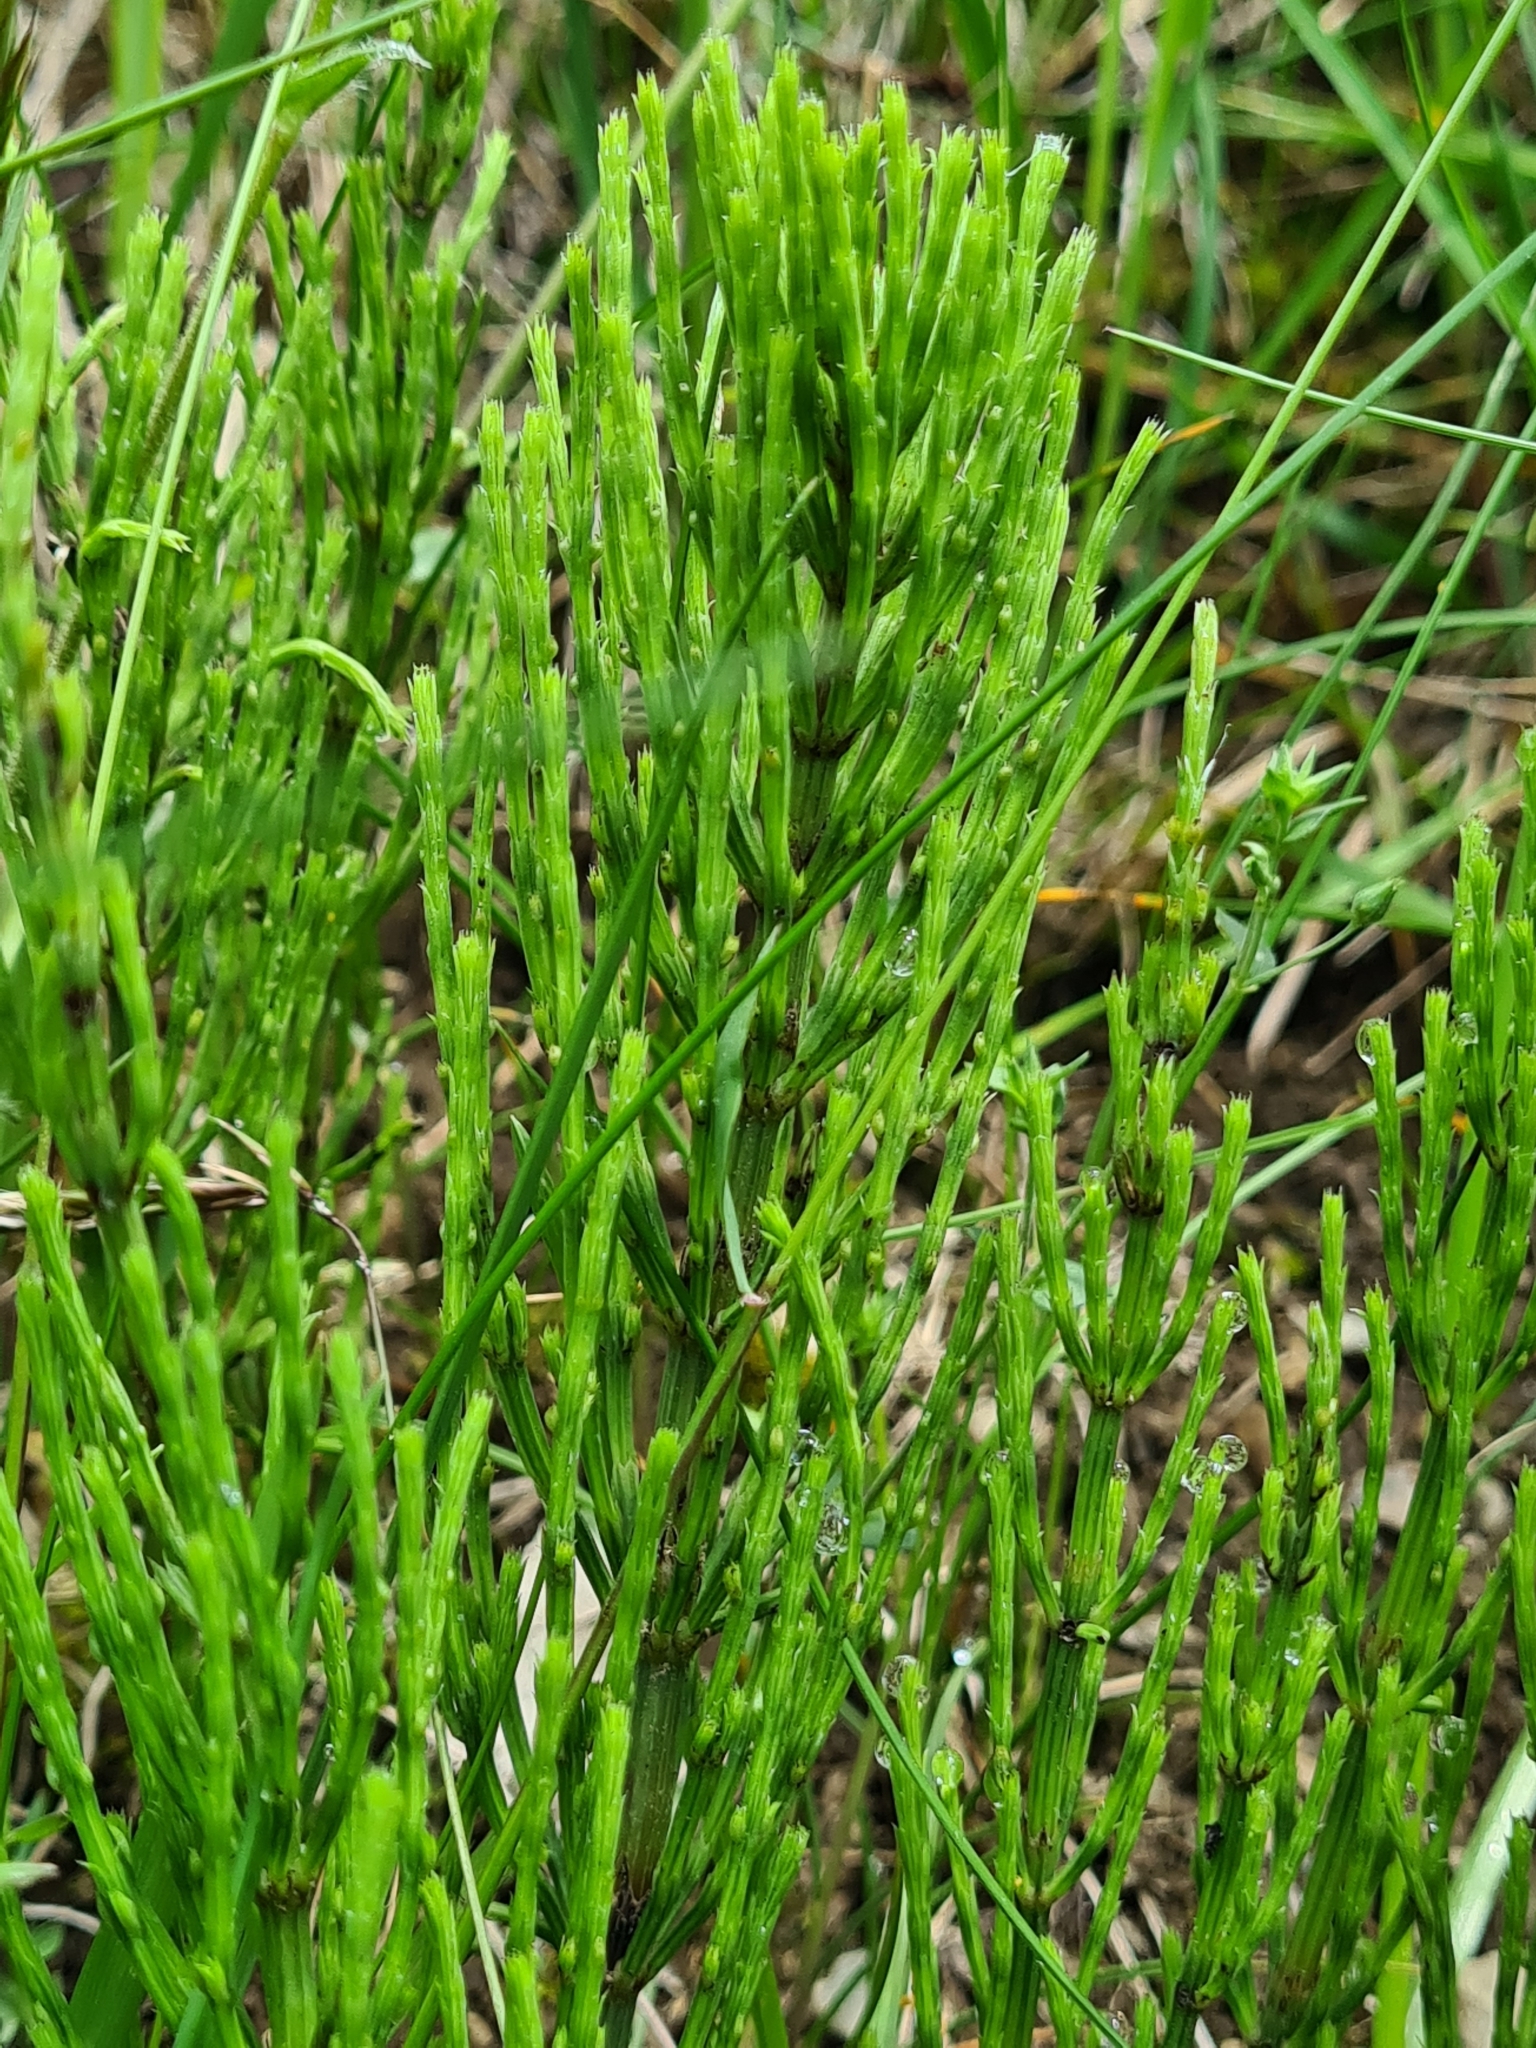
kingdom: Plantae
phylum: Tracheophyta
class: Polypodiopsida
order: Equisetales
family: Equisetaceae
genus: Equisetum
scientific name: Equisetum arvense
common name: Field horsetail
